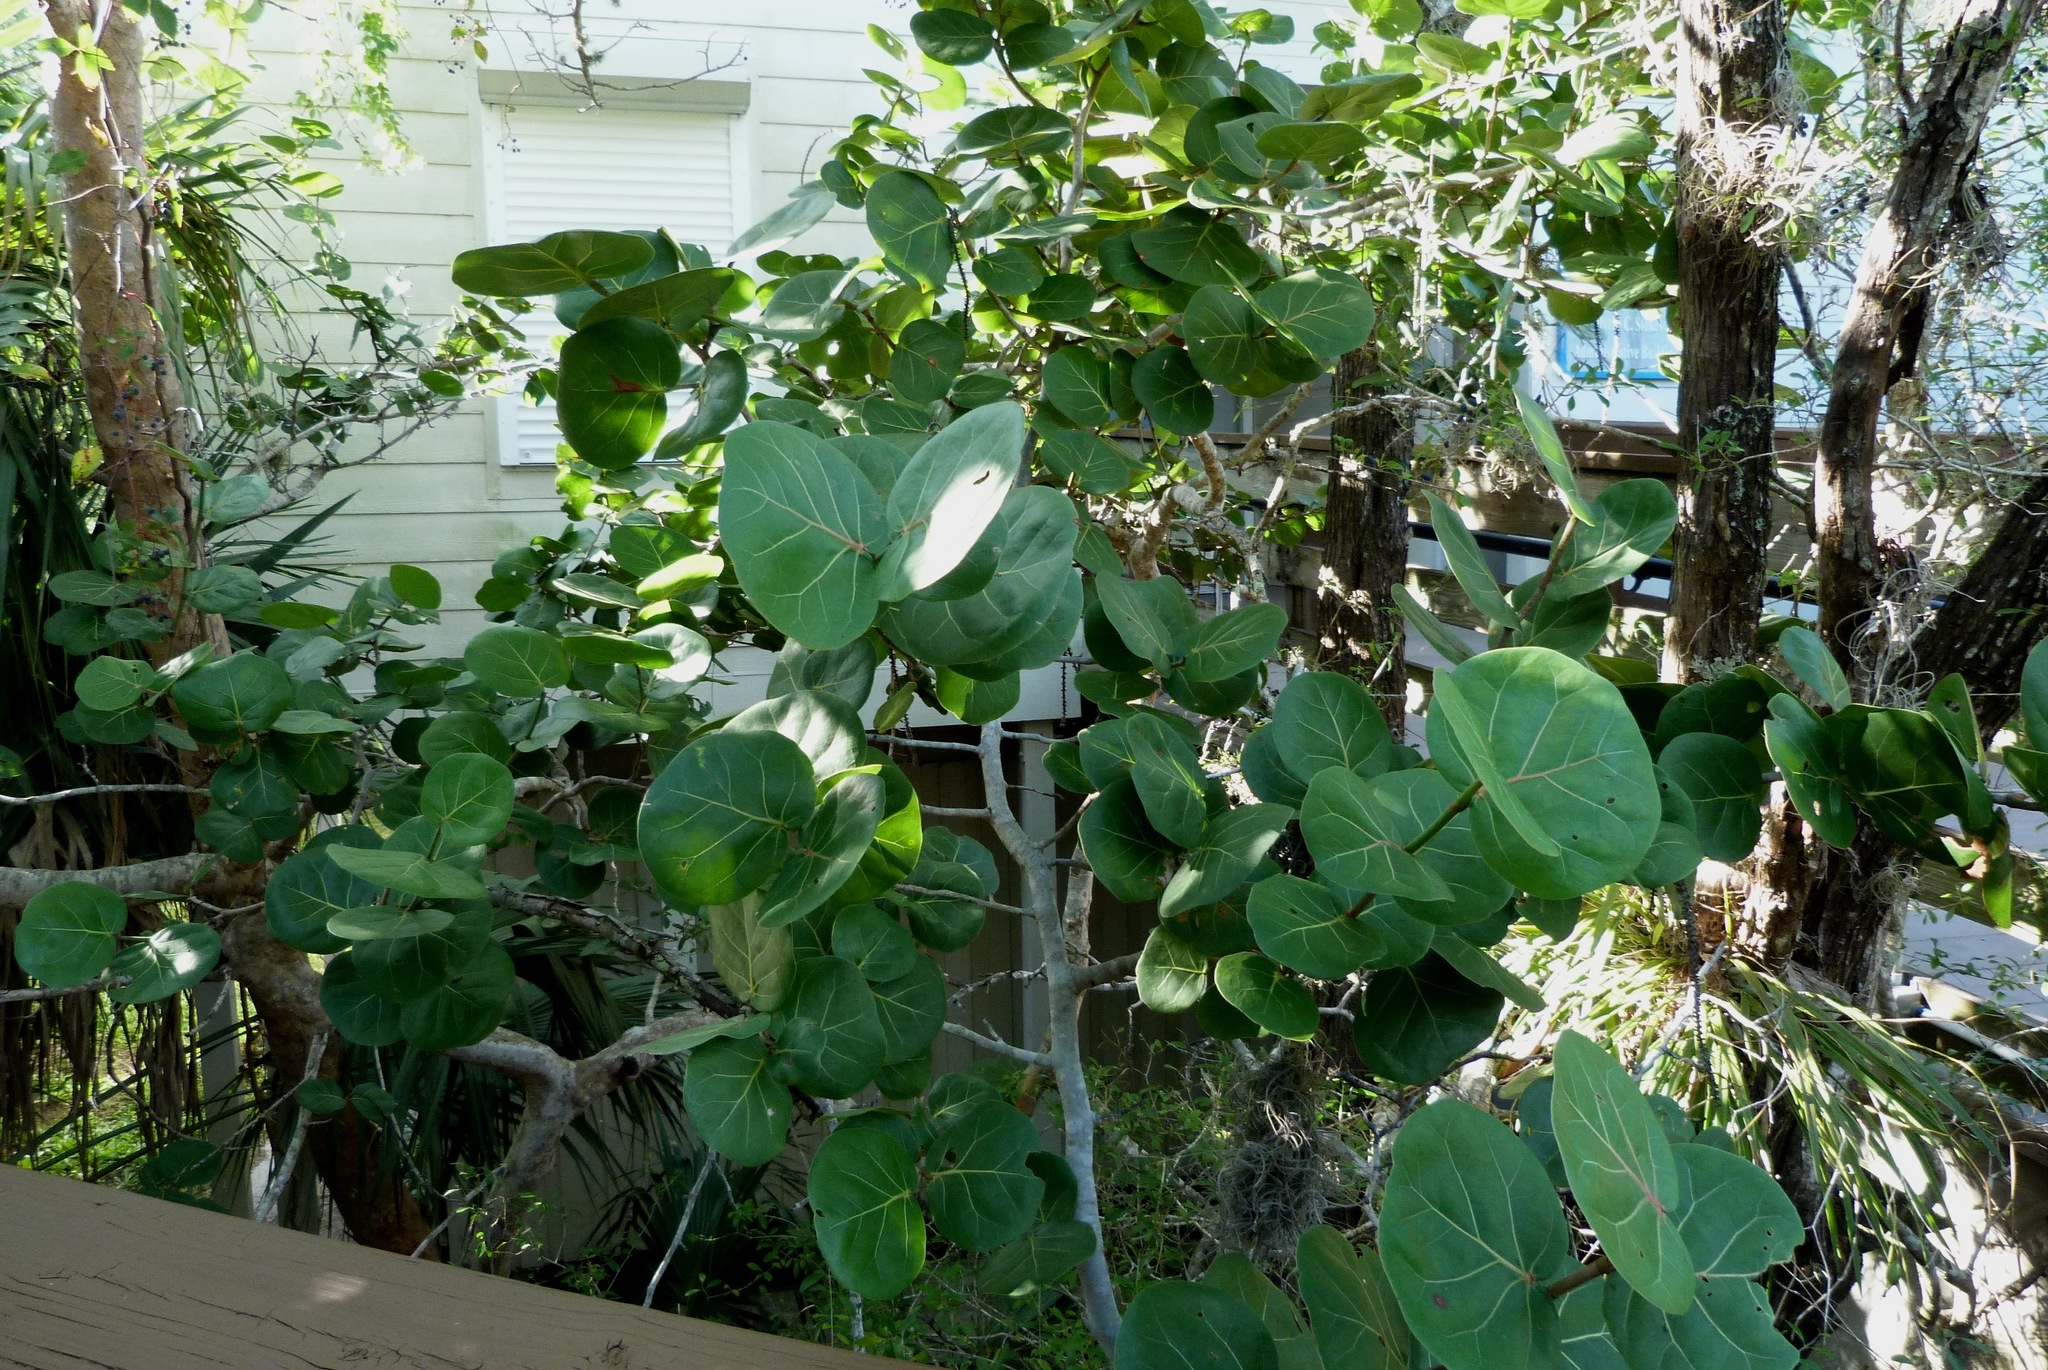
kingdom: Plantae
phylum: Tracheophyta
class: Magnoliopsida
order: Caryophyllales
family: Polygonaceae
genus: Coccoloba
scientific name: Coccoloba uvifera
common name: Seagrape
